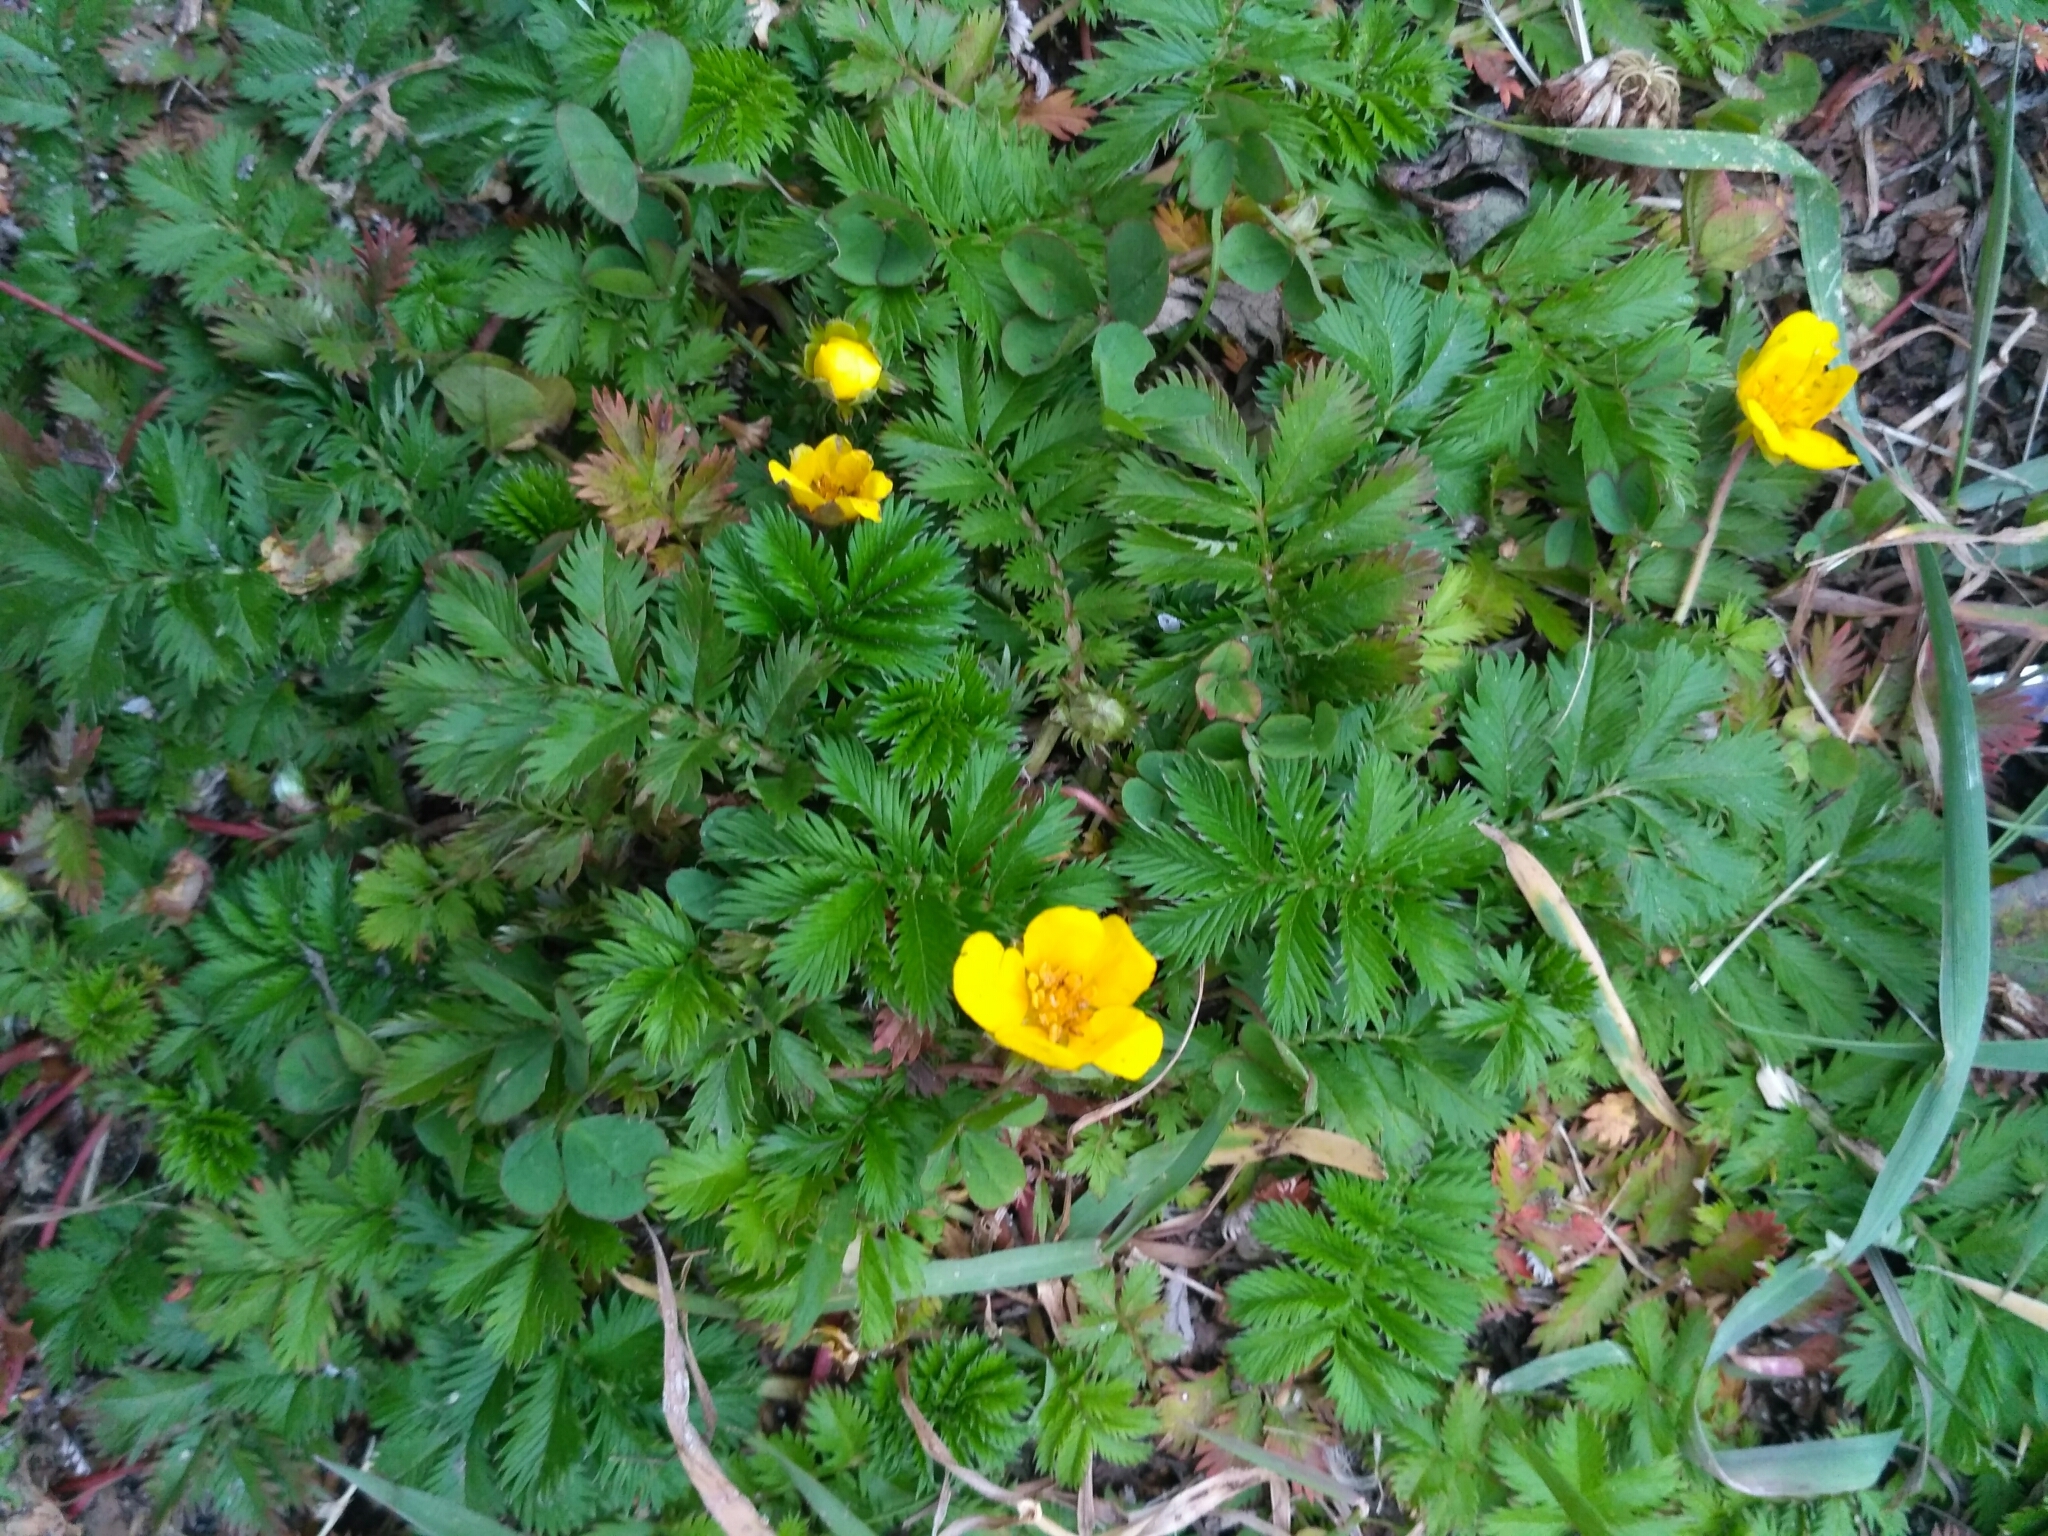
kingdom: Plantae
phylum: Tracheophyta
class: Magnoliopsida
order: Rosales
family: Rosaceae
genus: Argentina
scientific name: Argentina anserina
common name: Common silverweed
